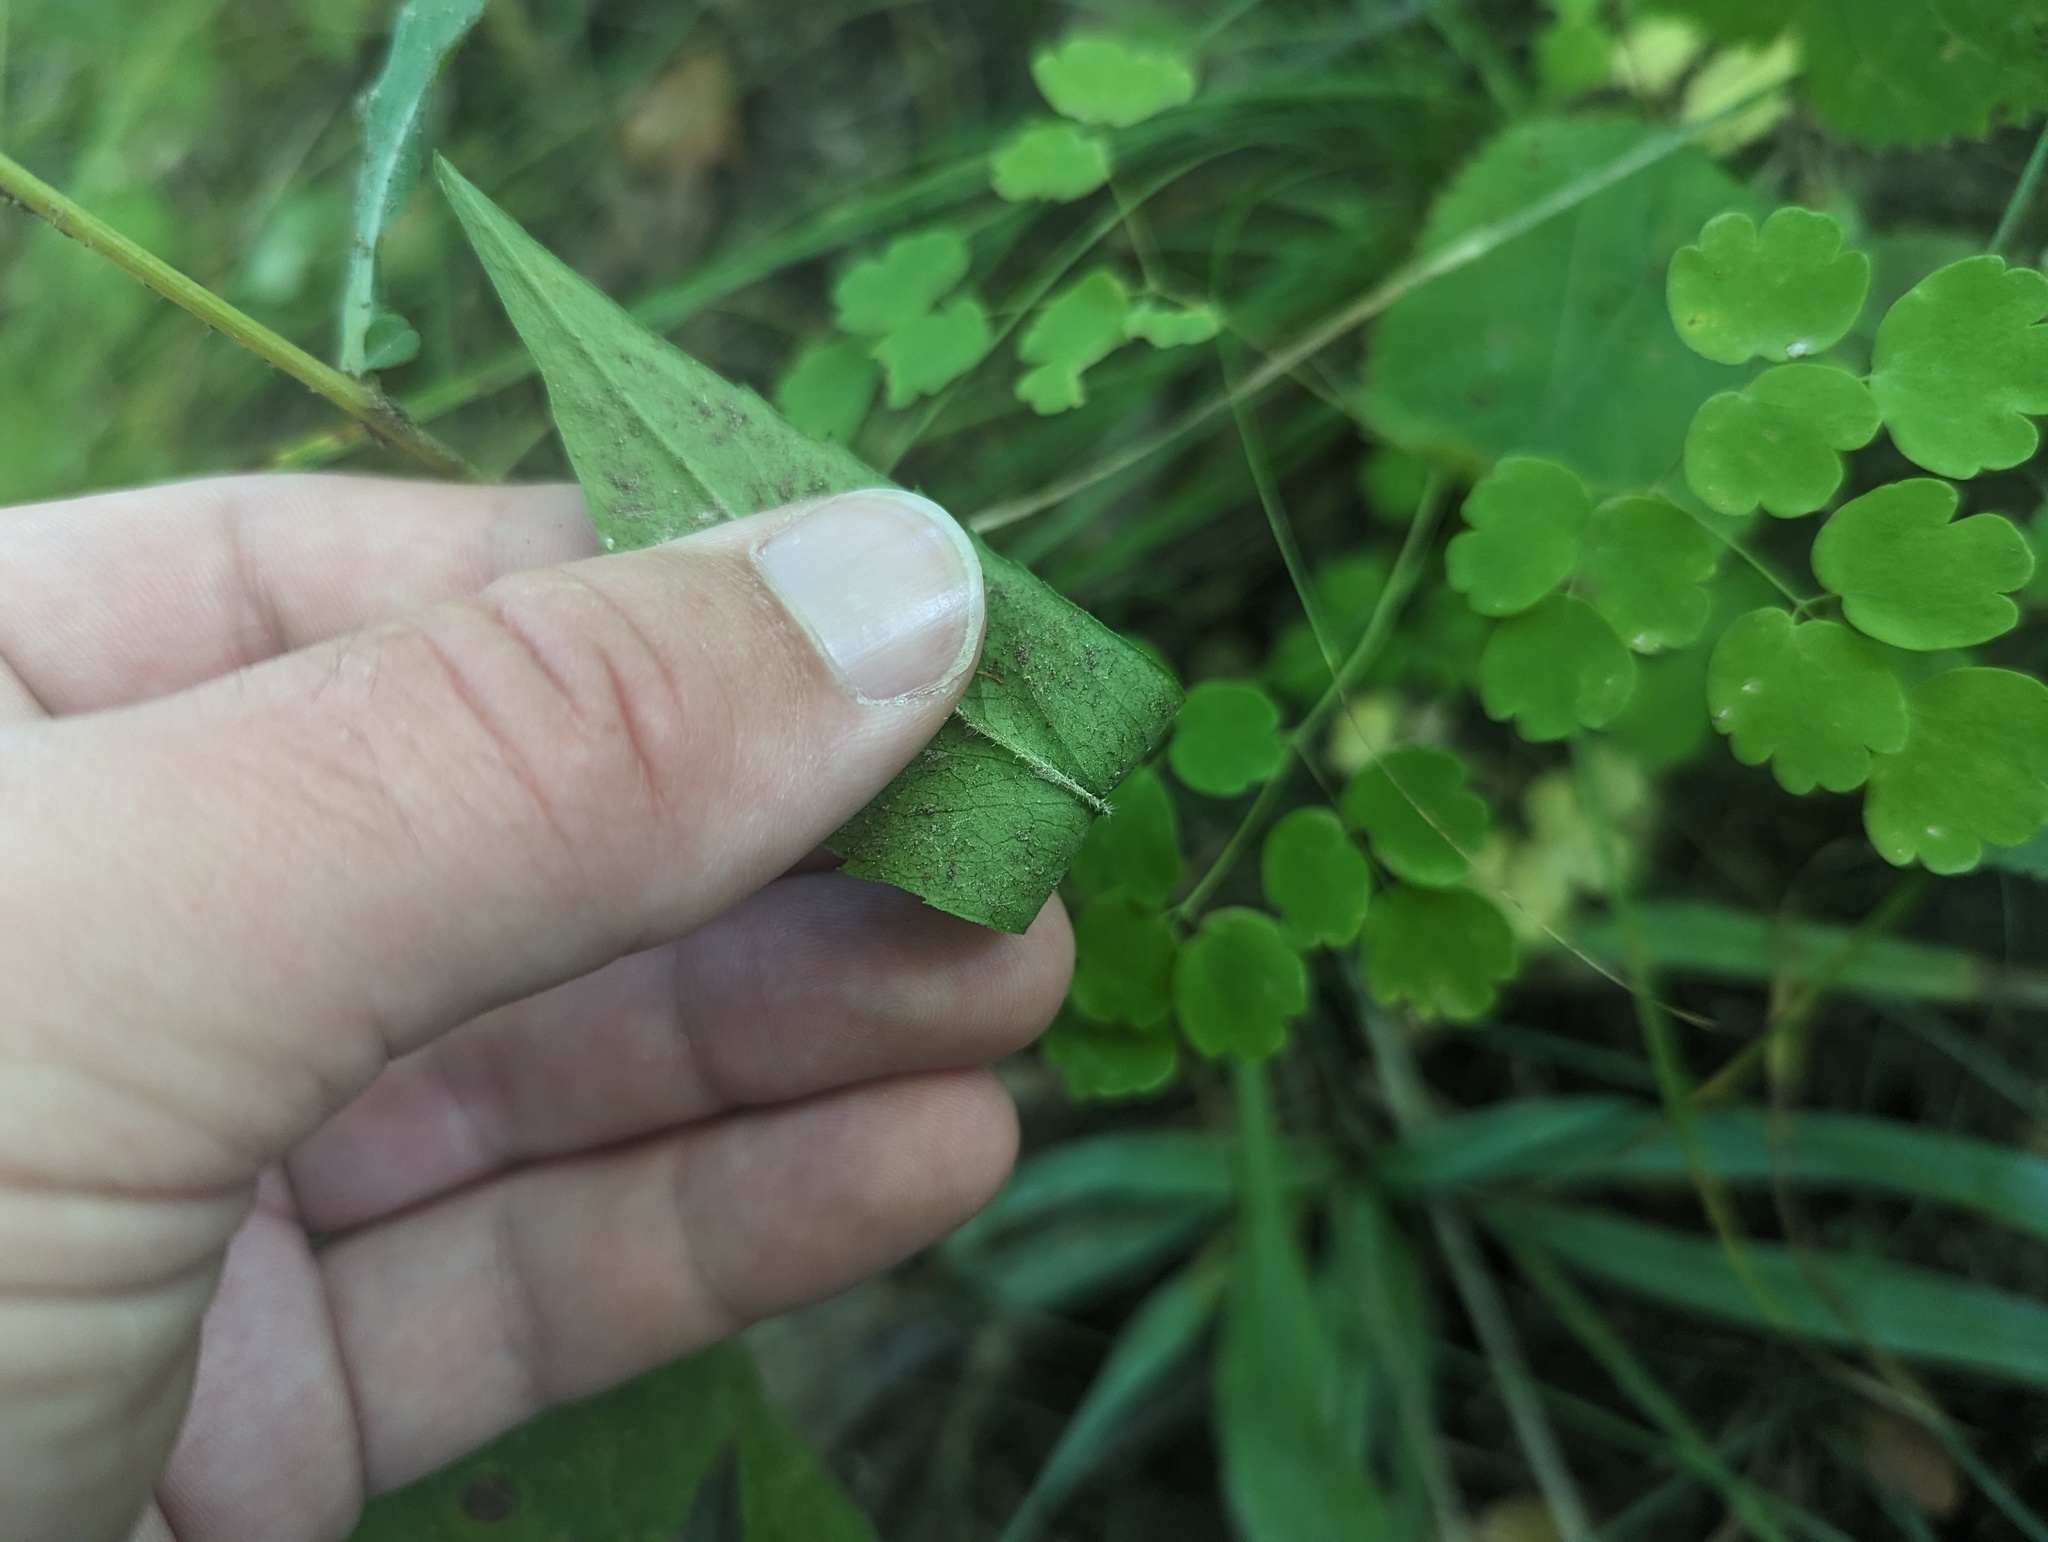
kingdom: Plantae
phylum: Tracheophyta
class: Magnoliopsida
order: Asterales
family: Asteraceae
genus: Symphyotrichum
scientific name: Symphyotrichum lateriflorum
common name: Calico aster
